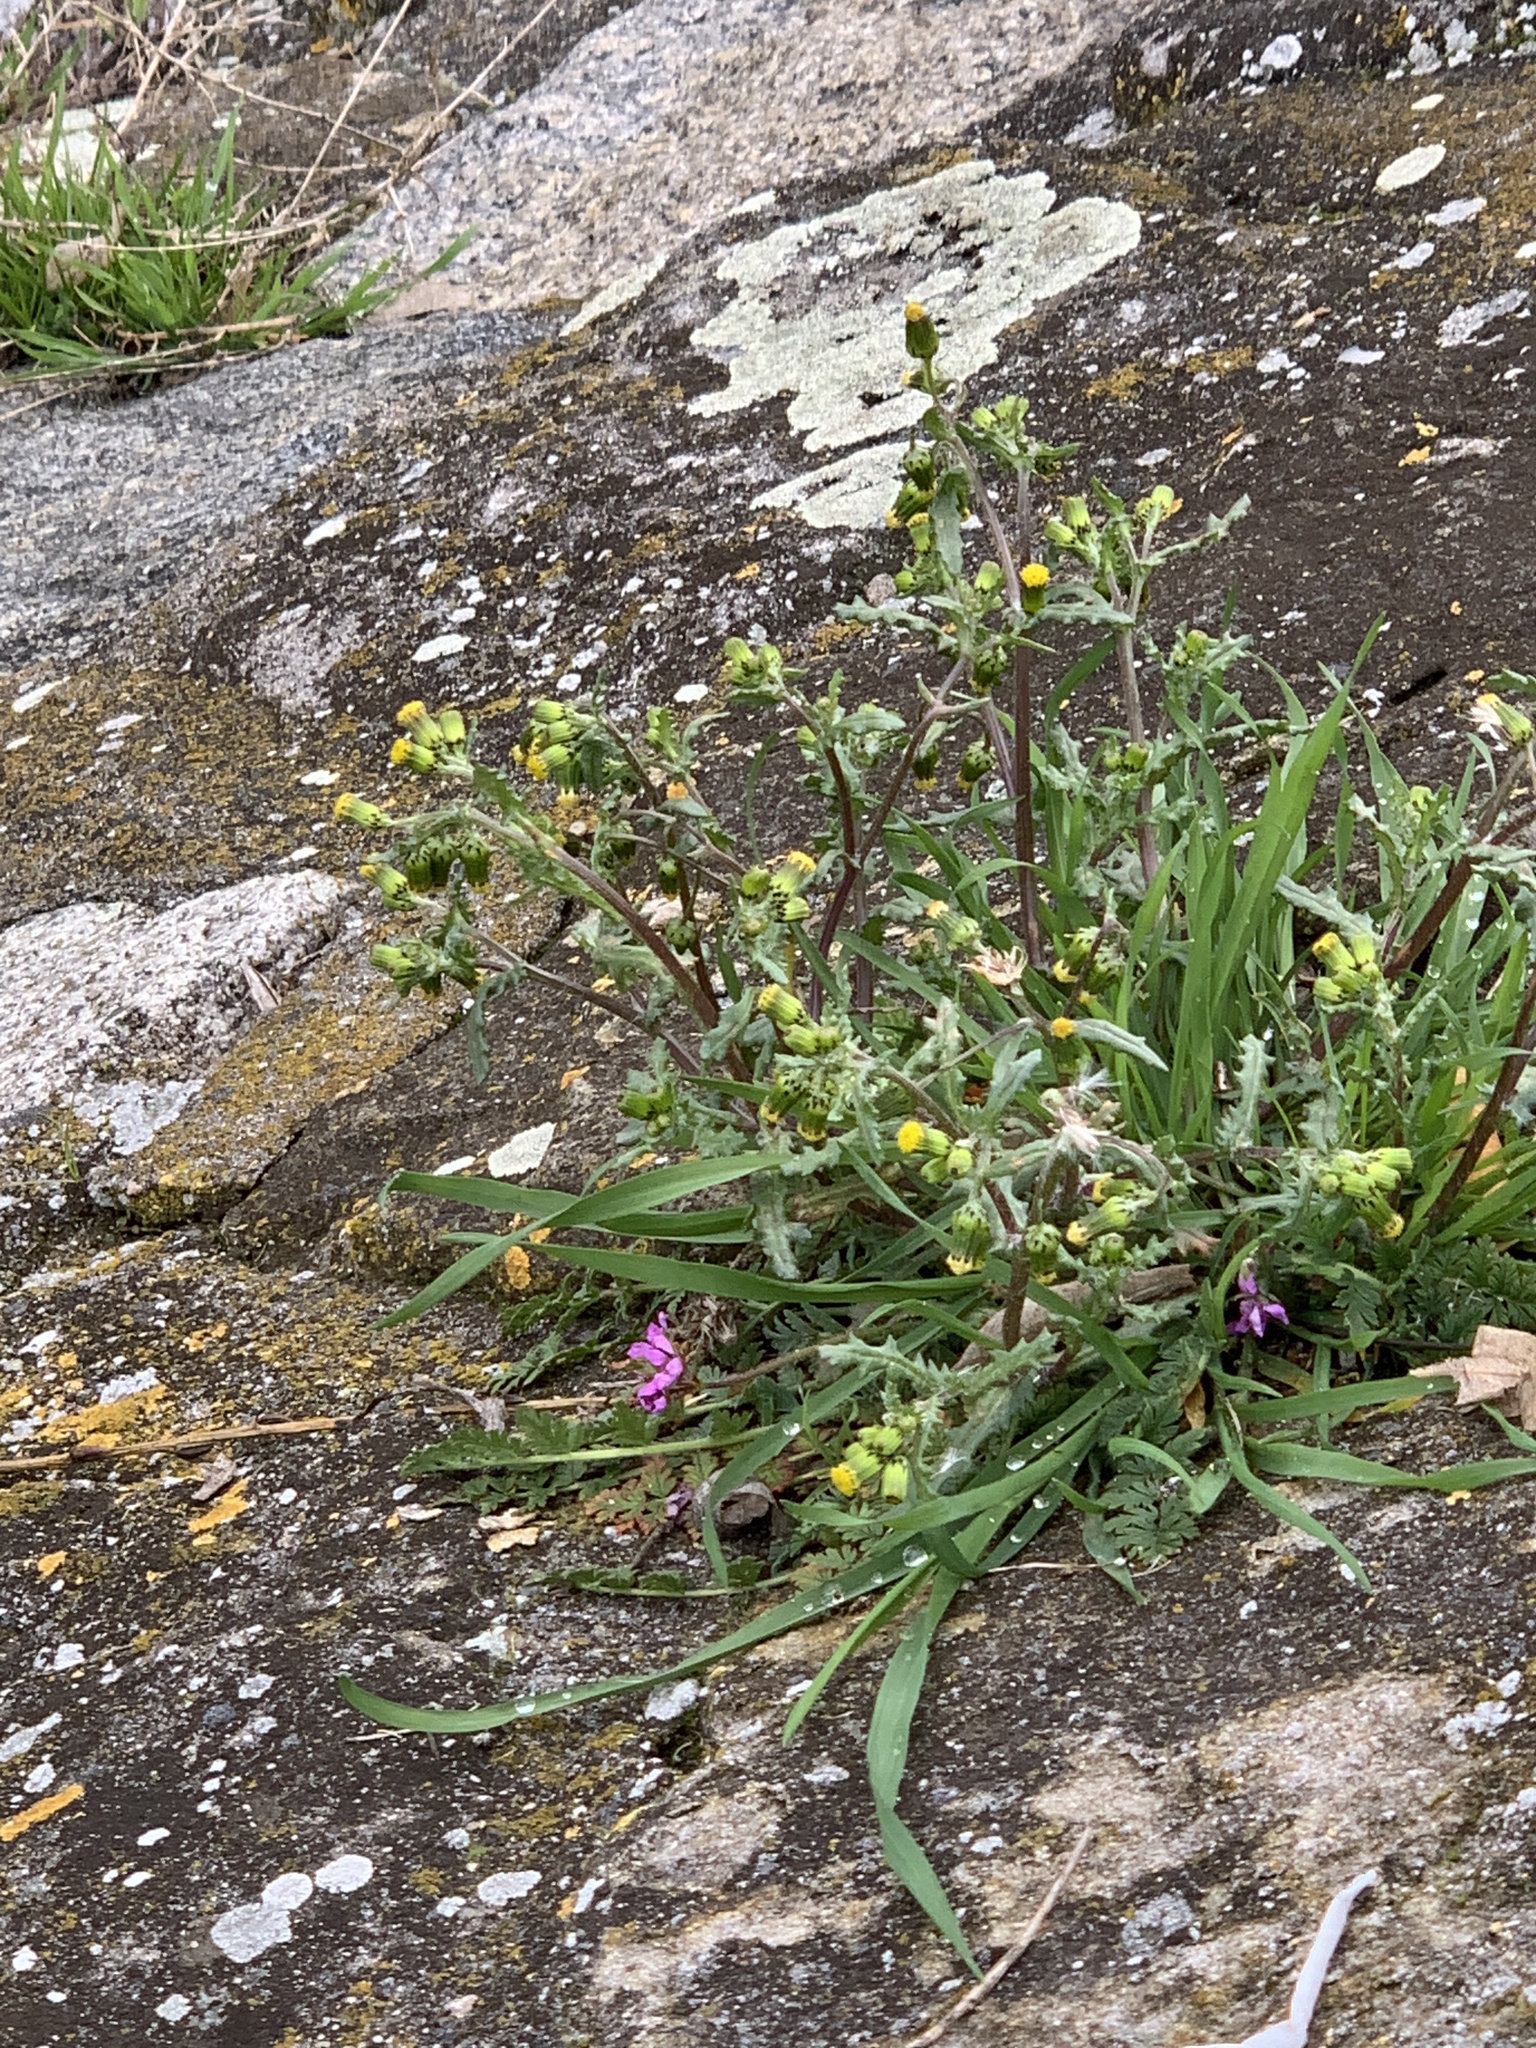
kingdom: Plantae
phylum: Tracheophyta
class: Magnoliopsida
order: Asterales
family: Asteraceae
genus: Senecio
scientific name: Senecio vulgaris
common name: Old-man-in-the-spring
